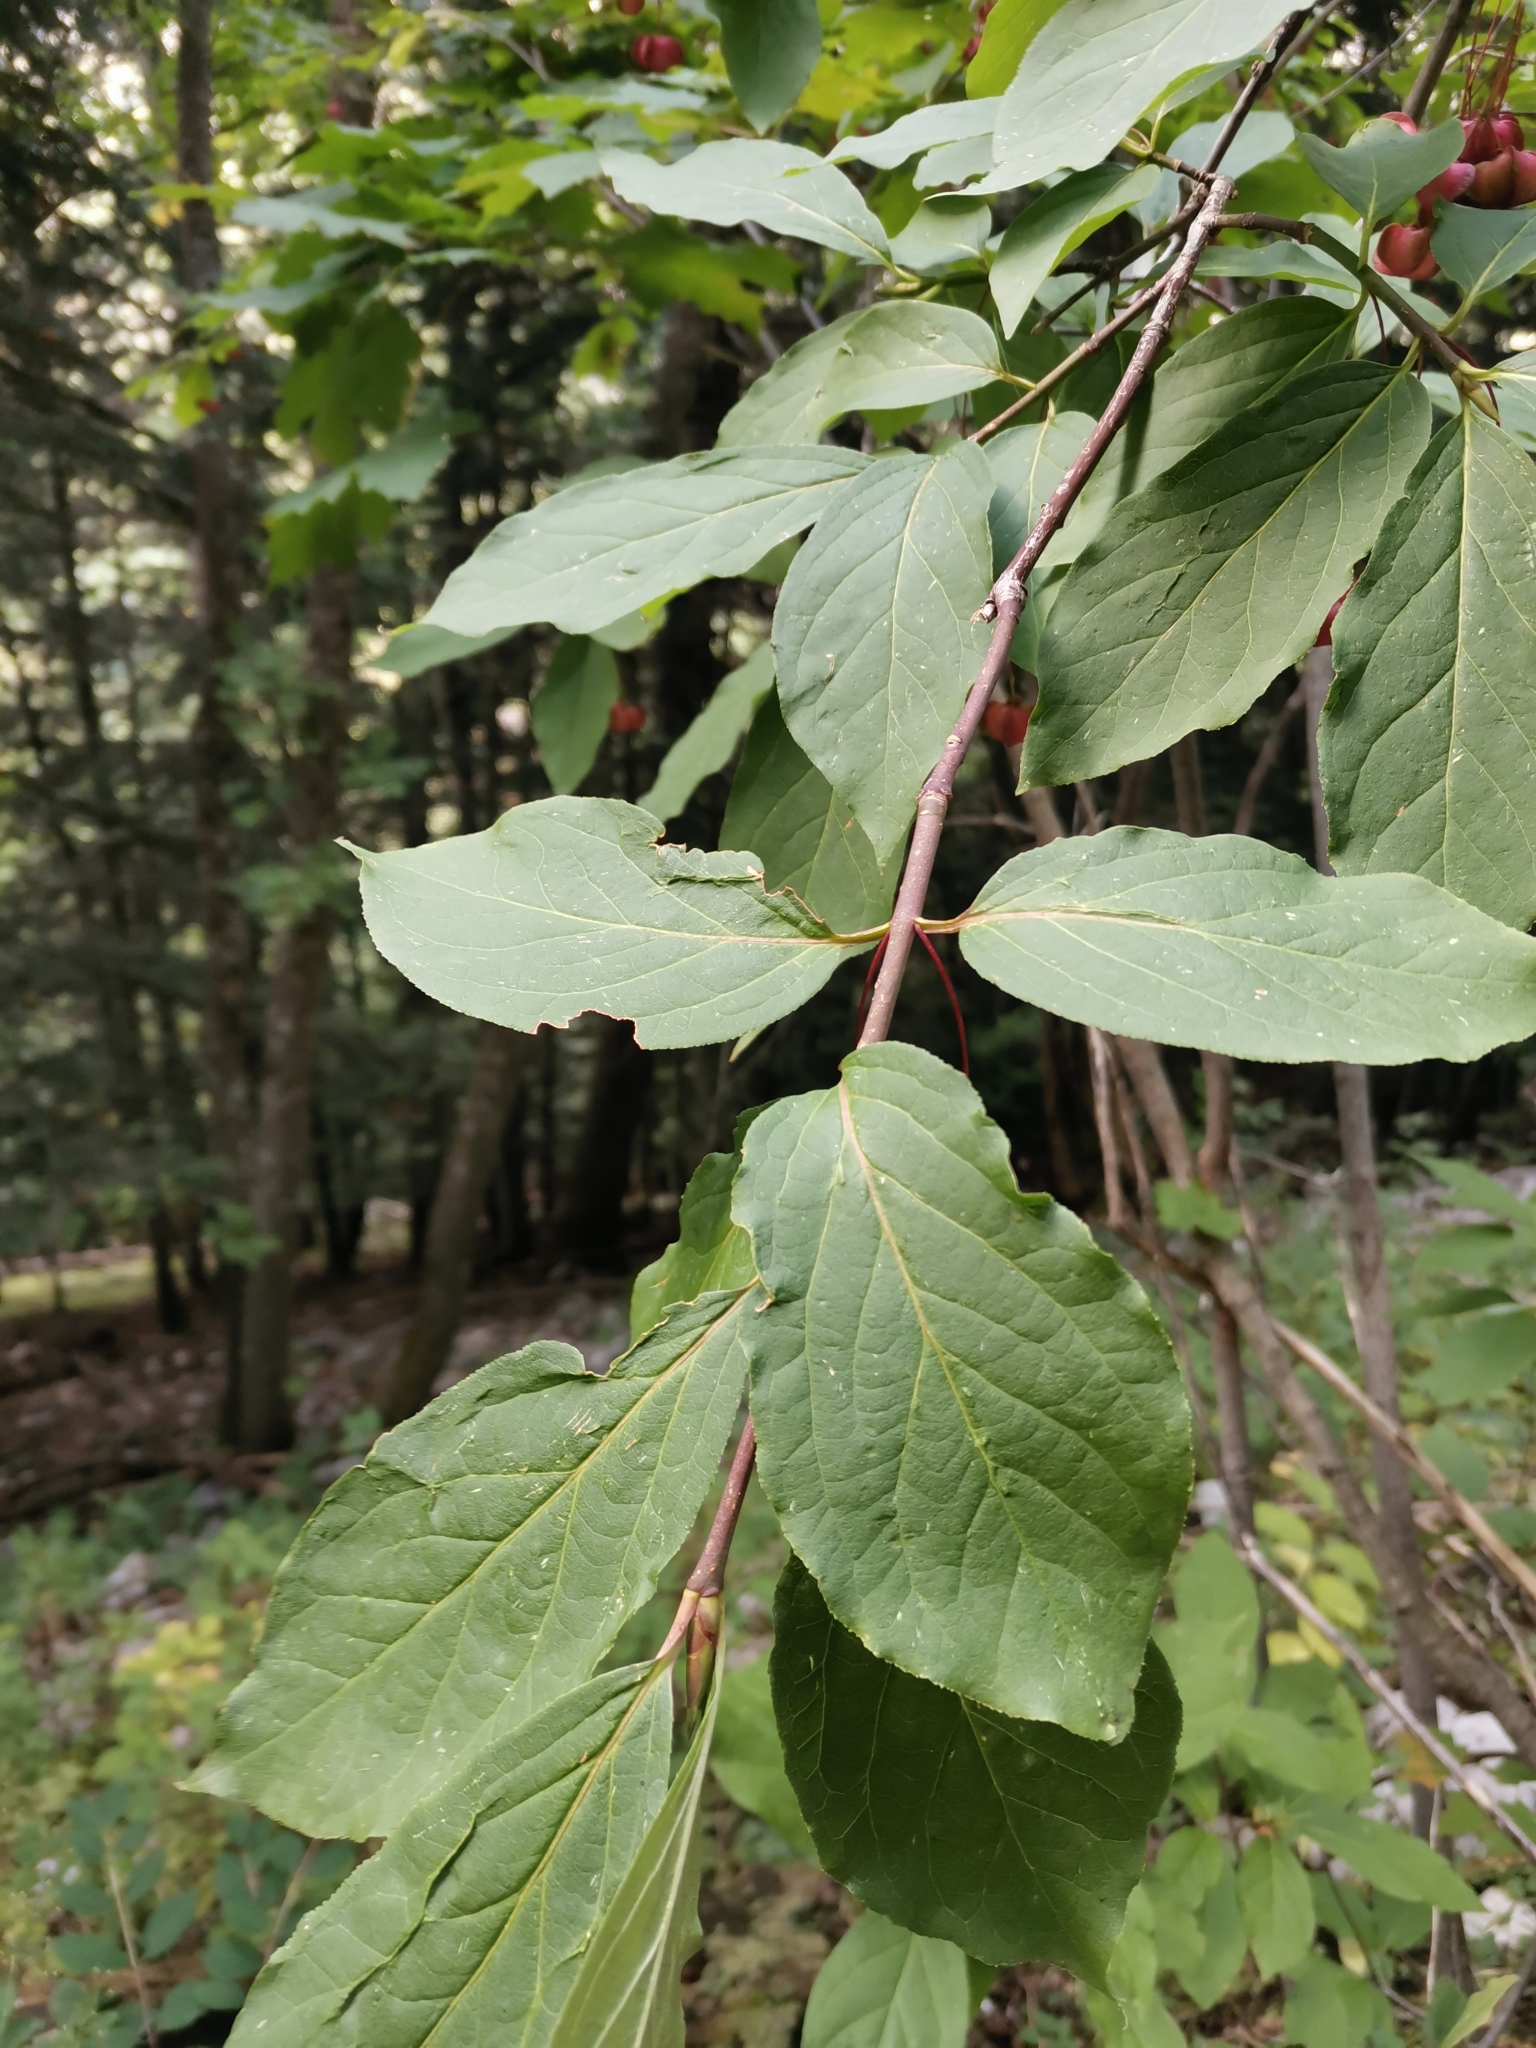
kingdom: Plantae
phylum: Tracheophyta
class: Magnoliopsida
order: Celastrales
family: Celastraceae
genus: Euonymus
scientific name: Euonymus latifolius
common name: Large-leaved spindle
